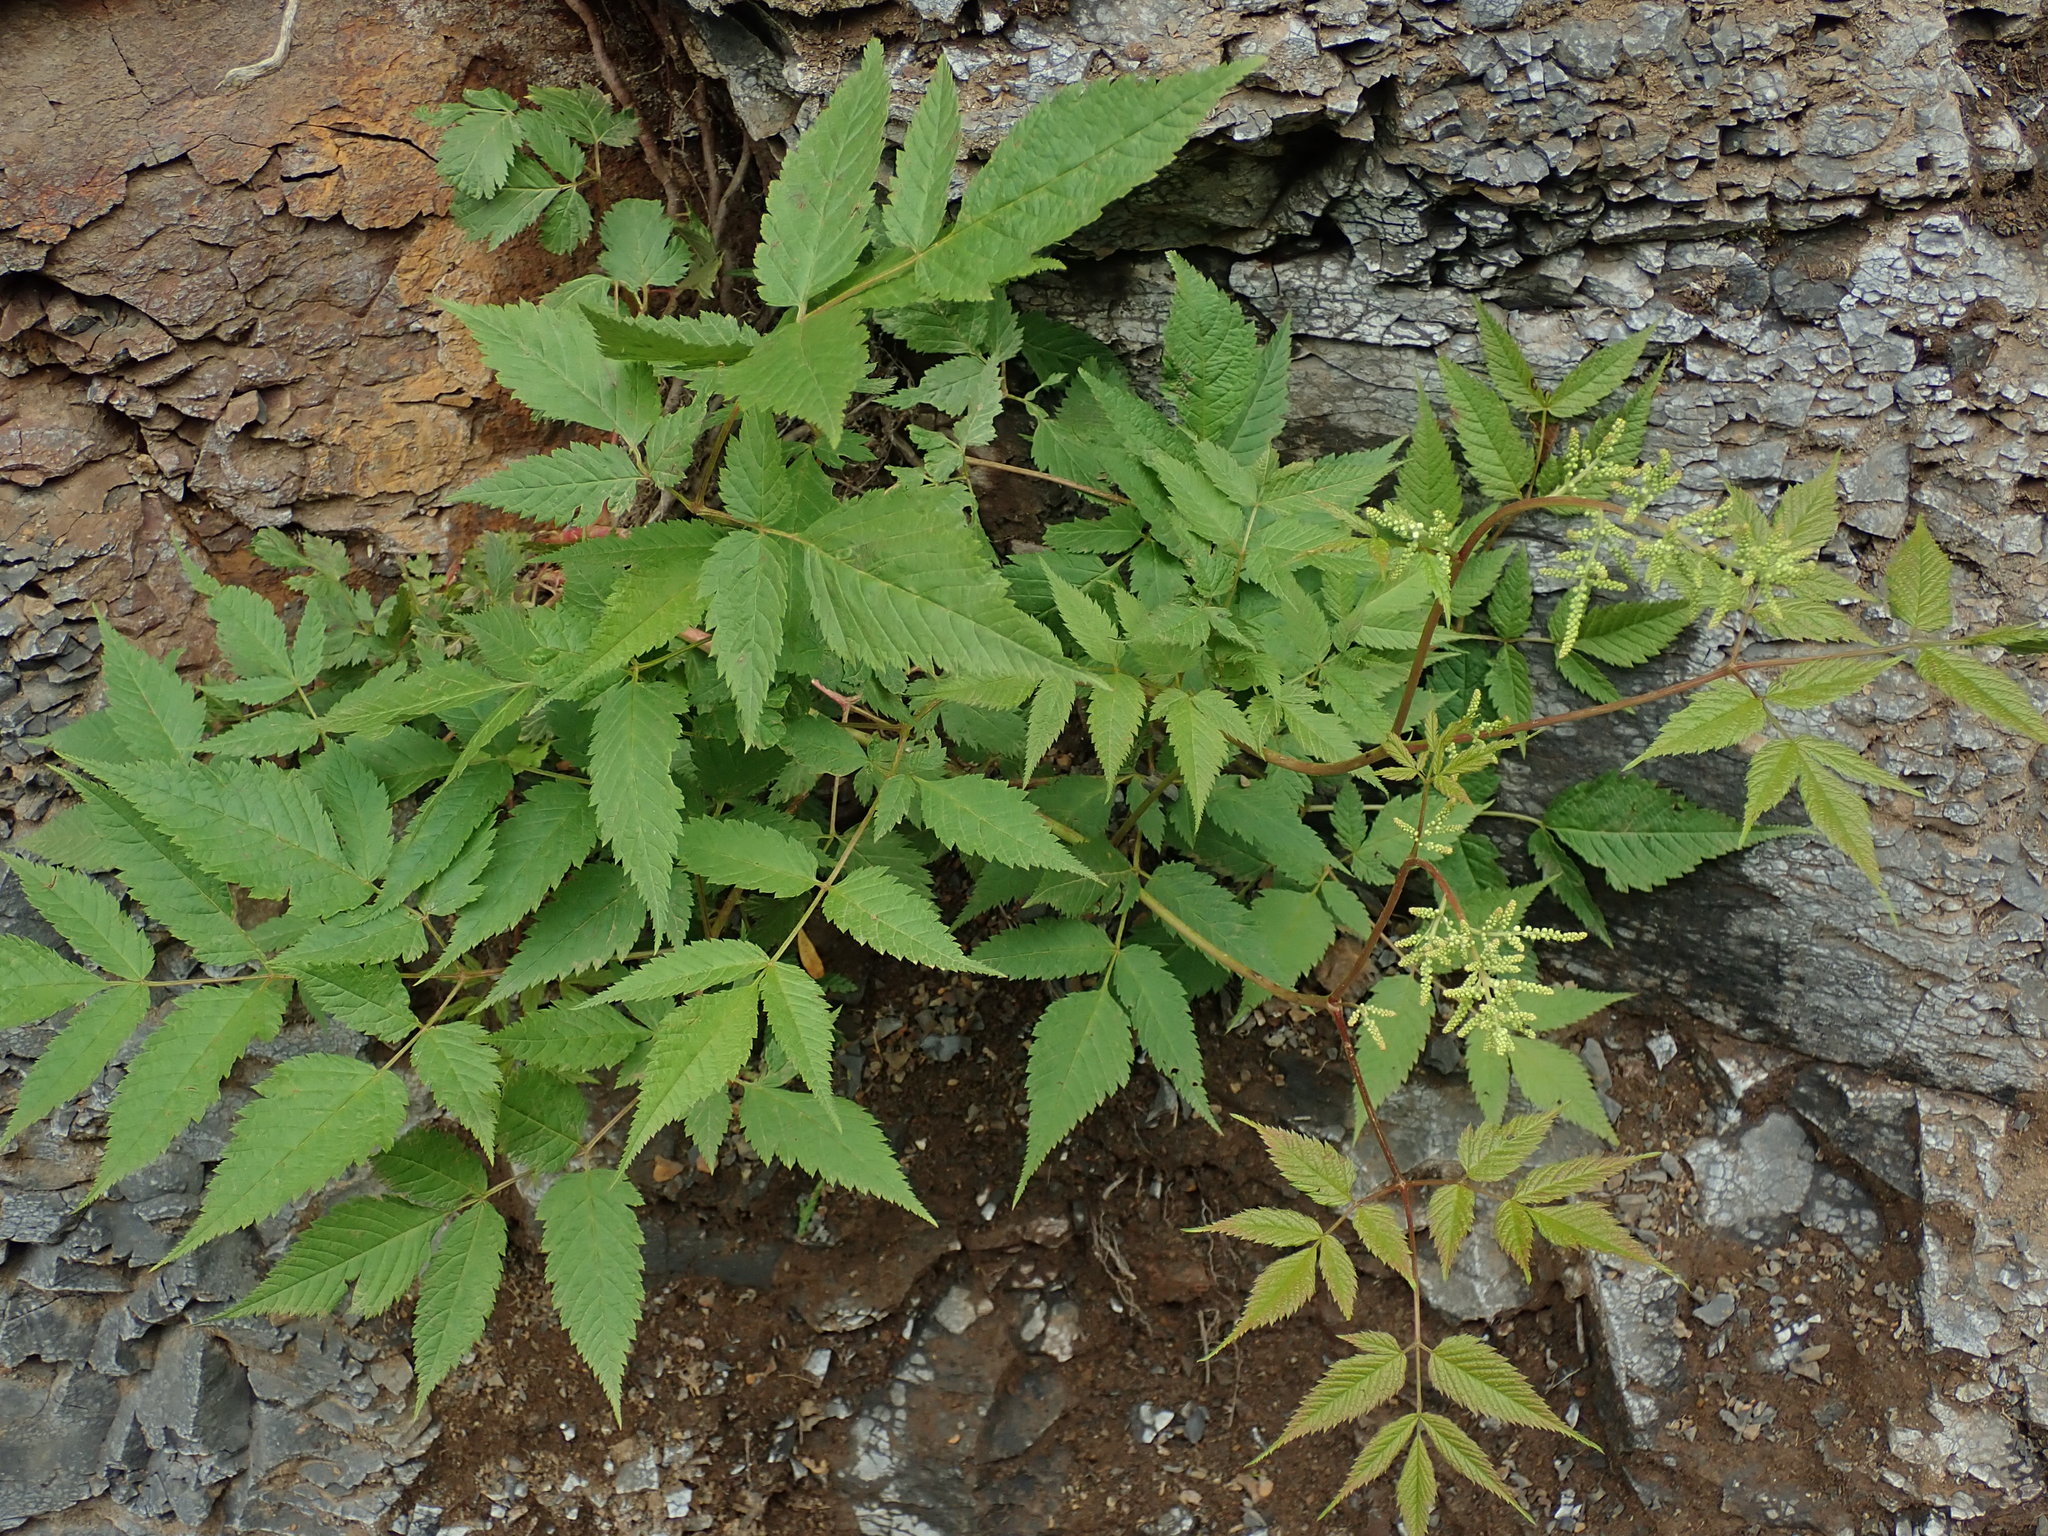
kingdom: Plantae
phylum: Tracheophyta
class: Magnoliopsida
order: Rosales
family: Rosaceae
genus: Aruncus
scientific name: Aruncus dioicus
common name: Buck's-beard
